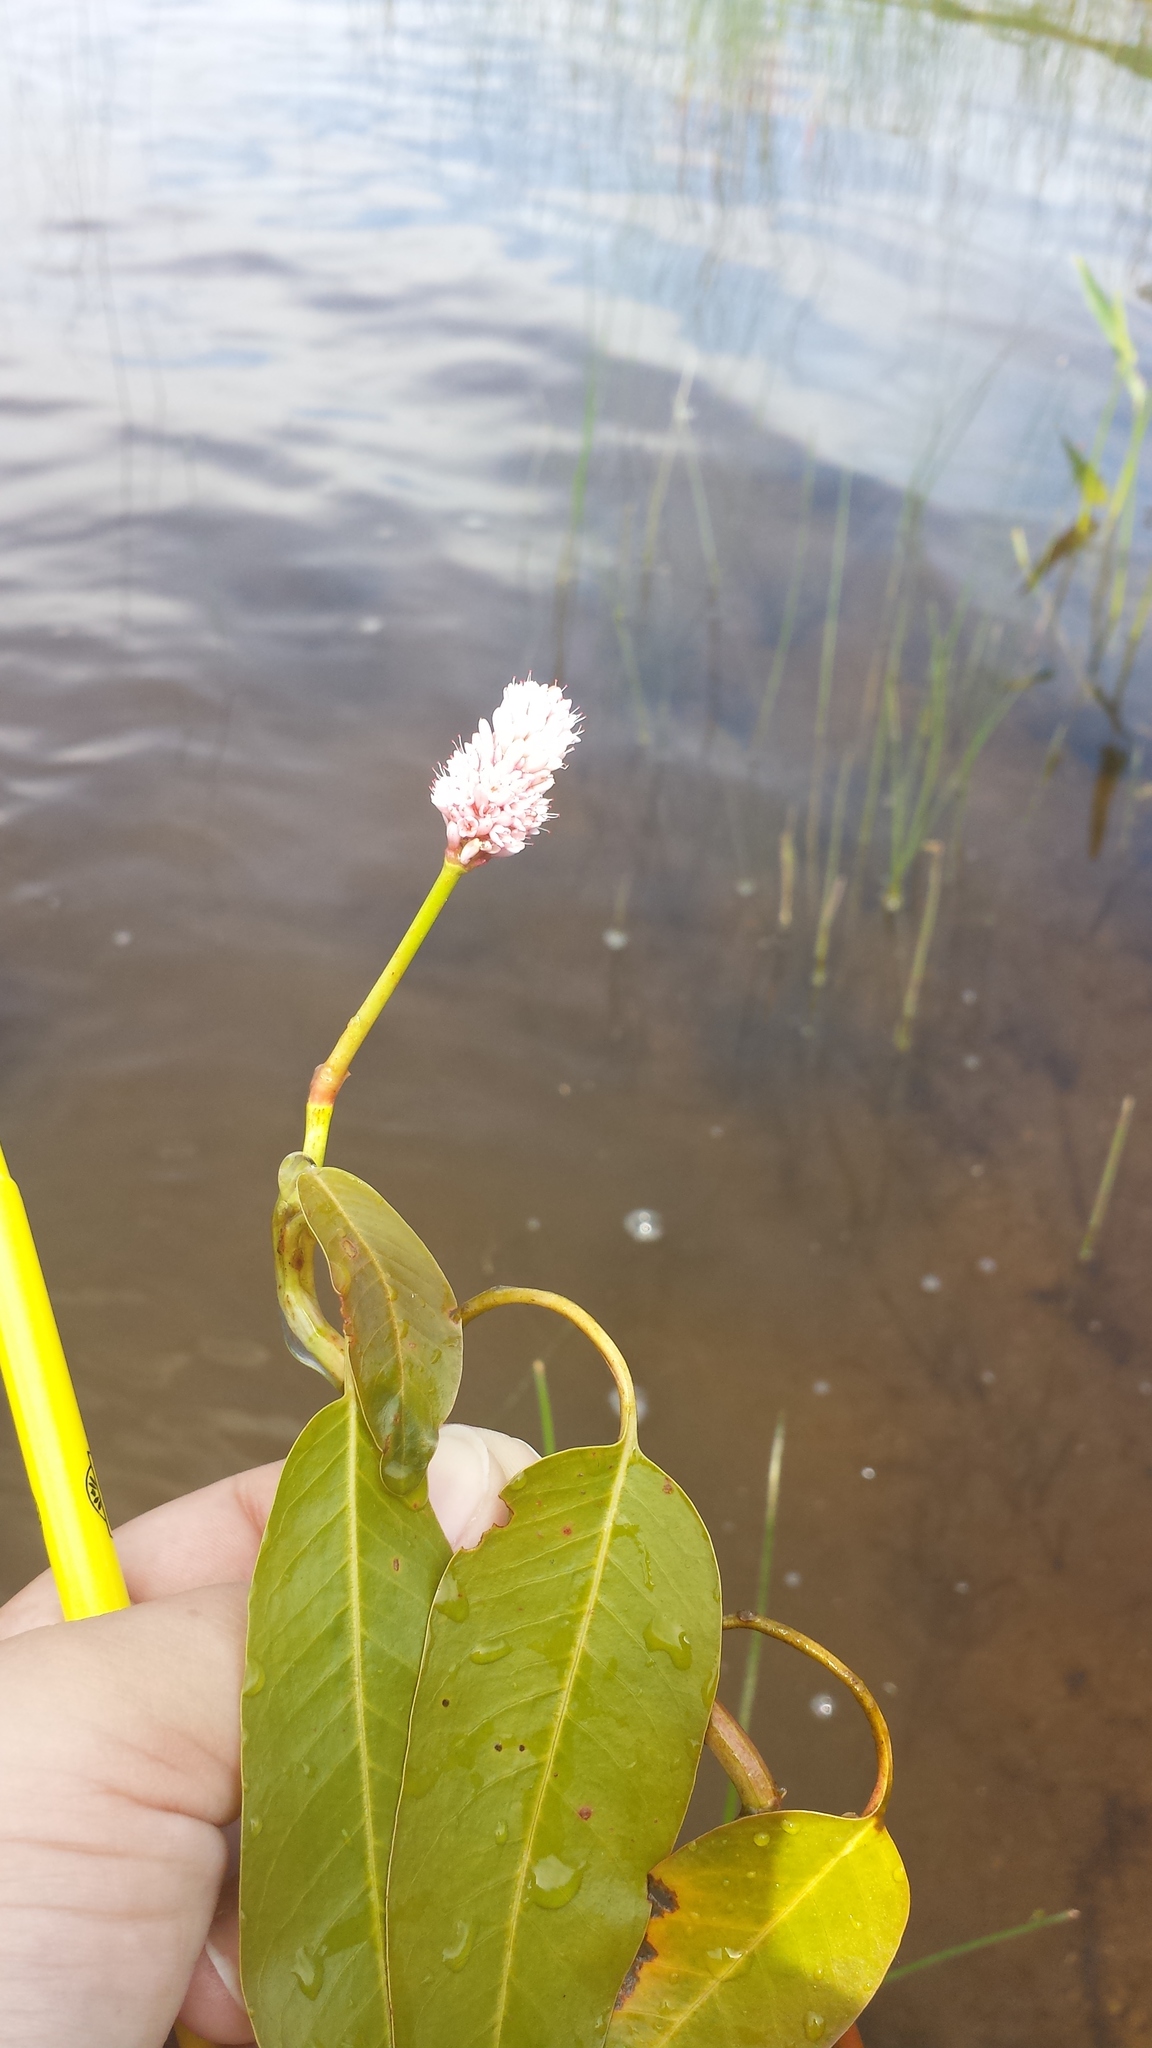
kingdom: Plantae
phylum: Tracheophyta
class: Magnoliopsida
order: Caryophyllales
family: Polygonaceae
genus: Persicaria
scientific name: Persicaria amphibia
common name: Amphibious bistort
